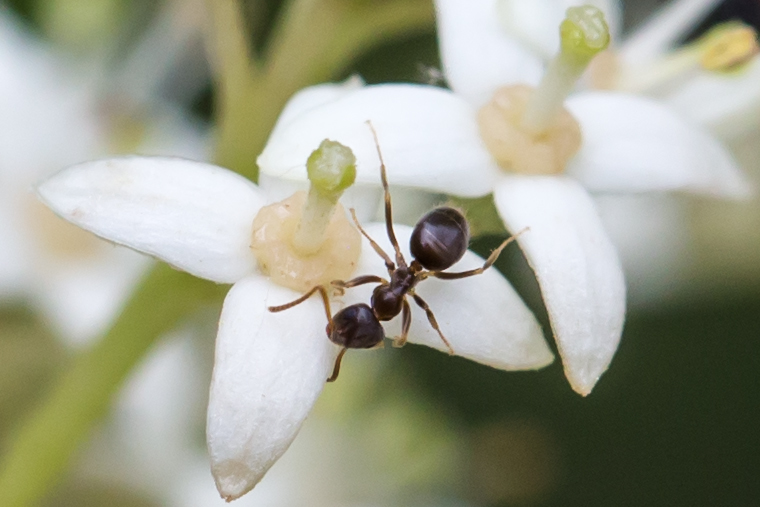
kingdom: Animalia
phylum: Arthropoda
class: Insecta
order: Hymenoptera
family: Formicidae
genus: Lasius
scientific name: Lasius americanus
